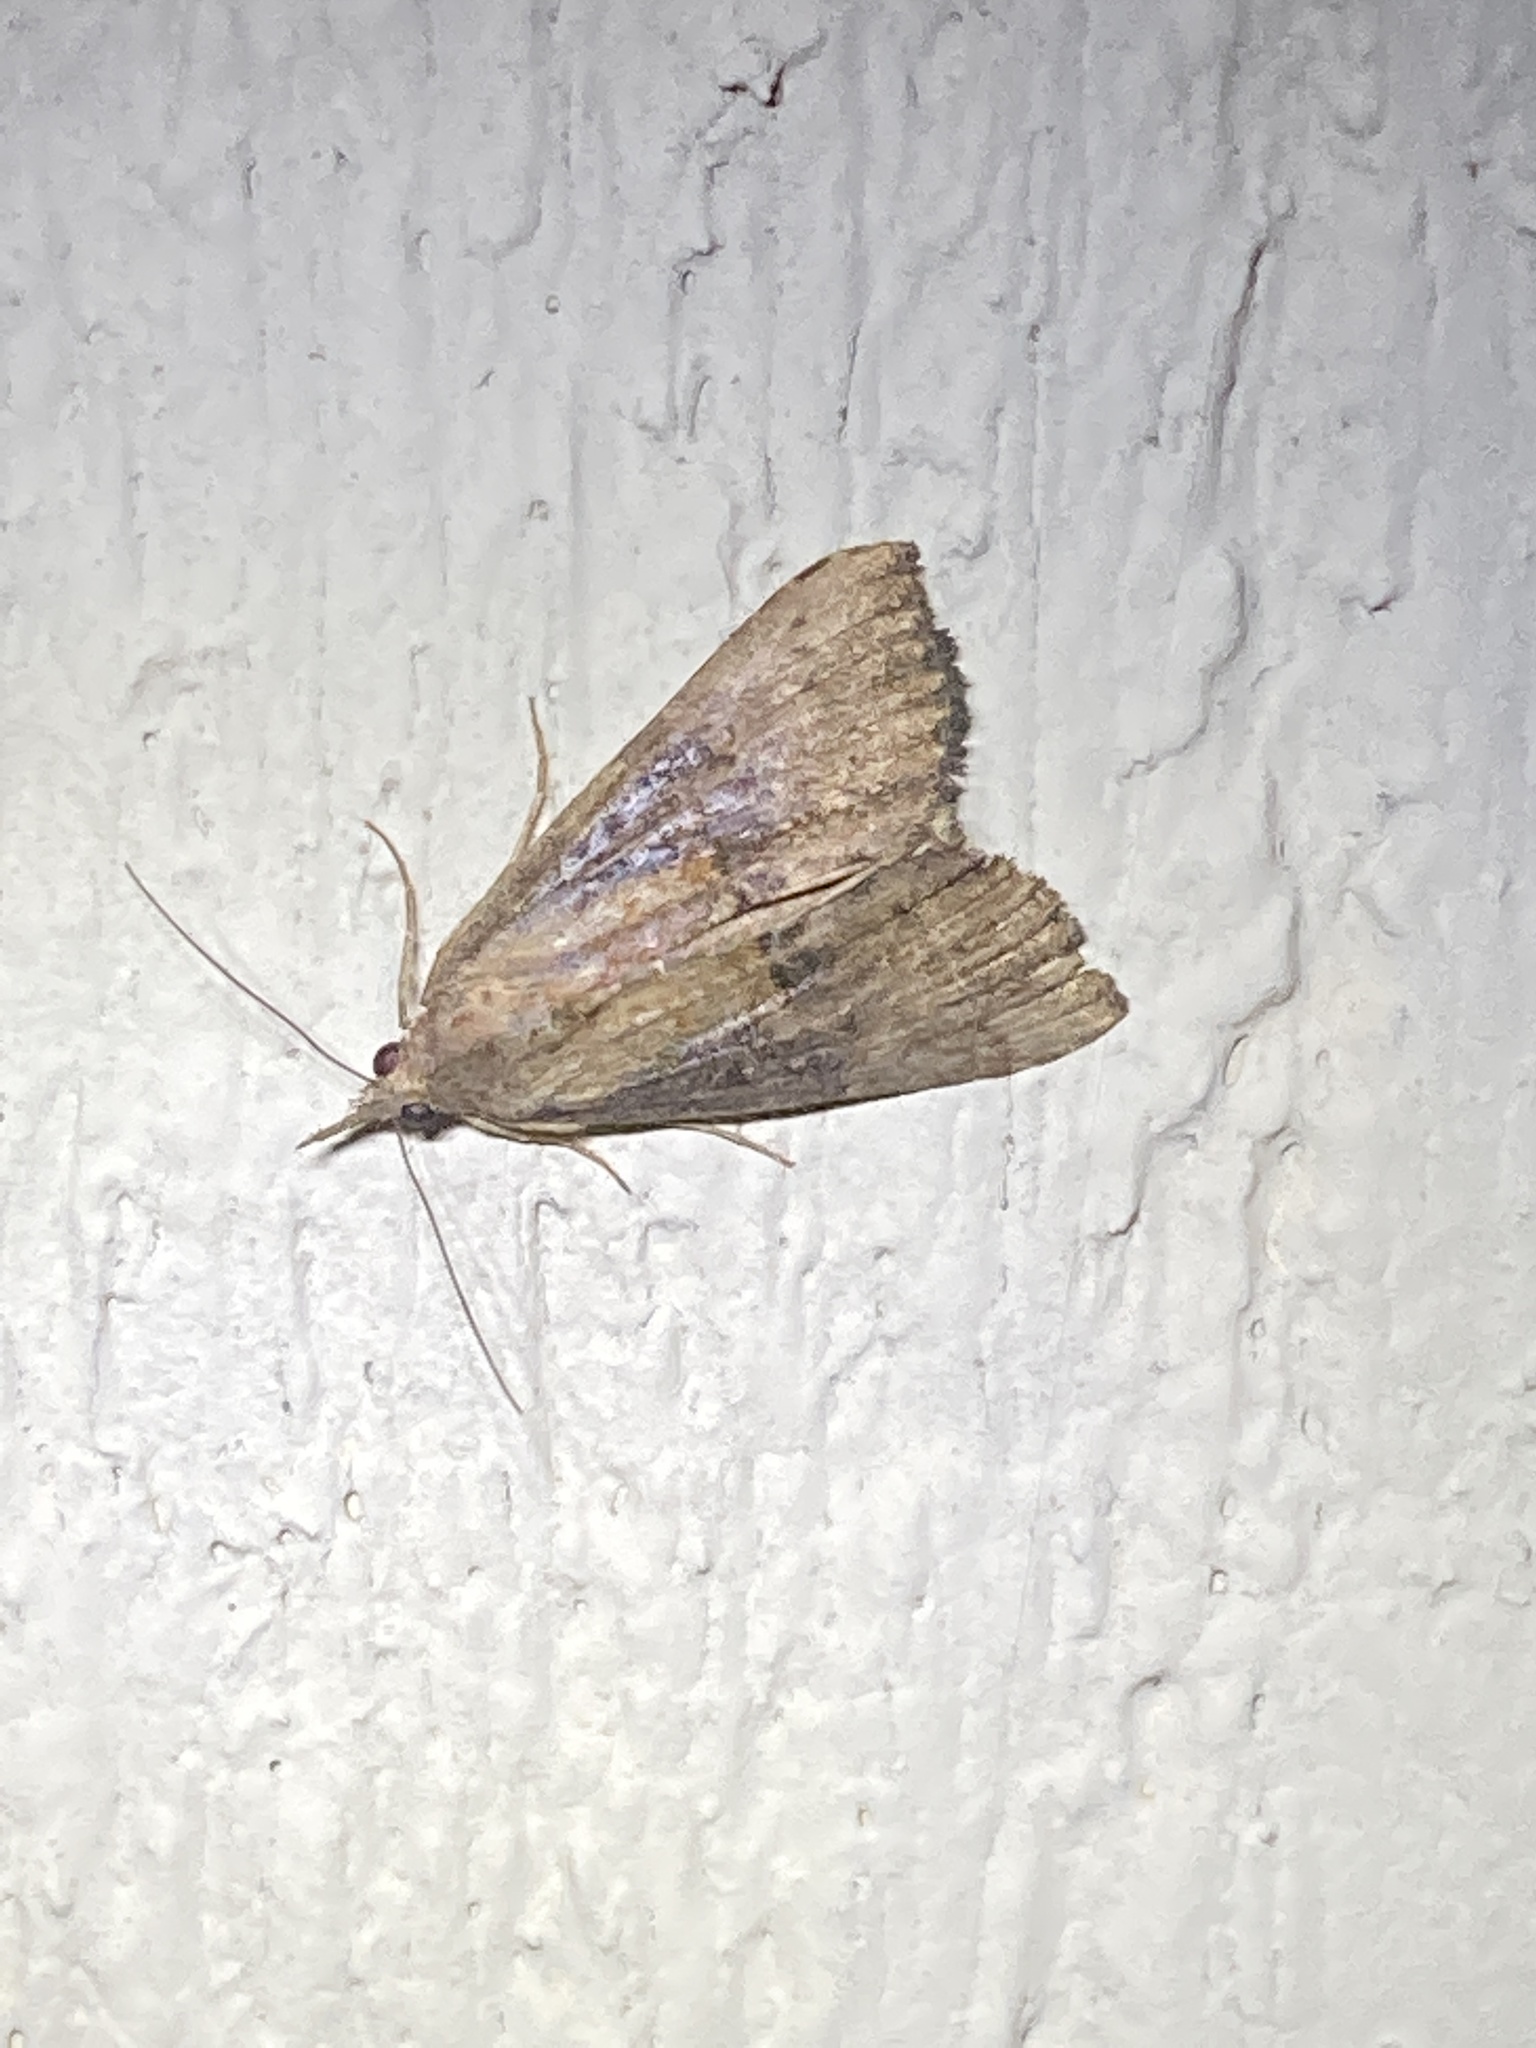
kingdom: Animalia
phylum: Arthropoda
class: Insecta
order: Lepidoptera
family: Erebidae
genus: Hypena
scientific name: Hypena scabra
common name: Green cloverworm
